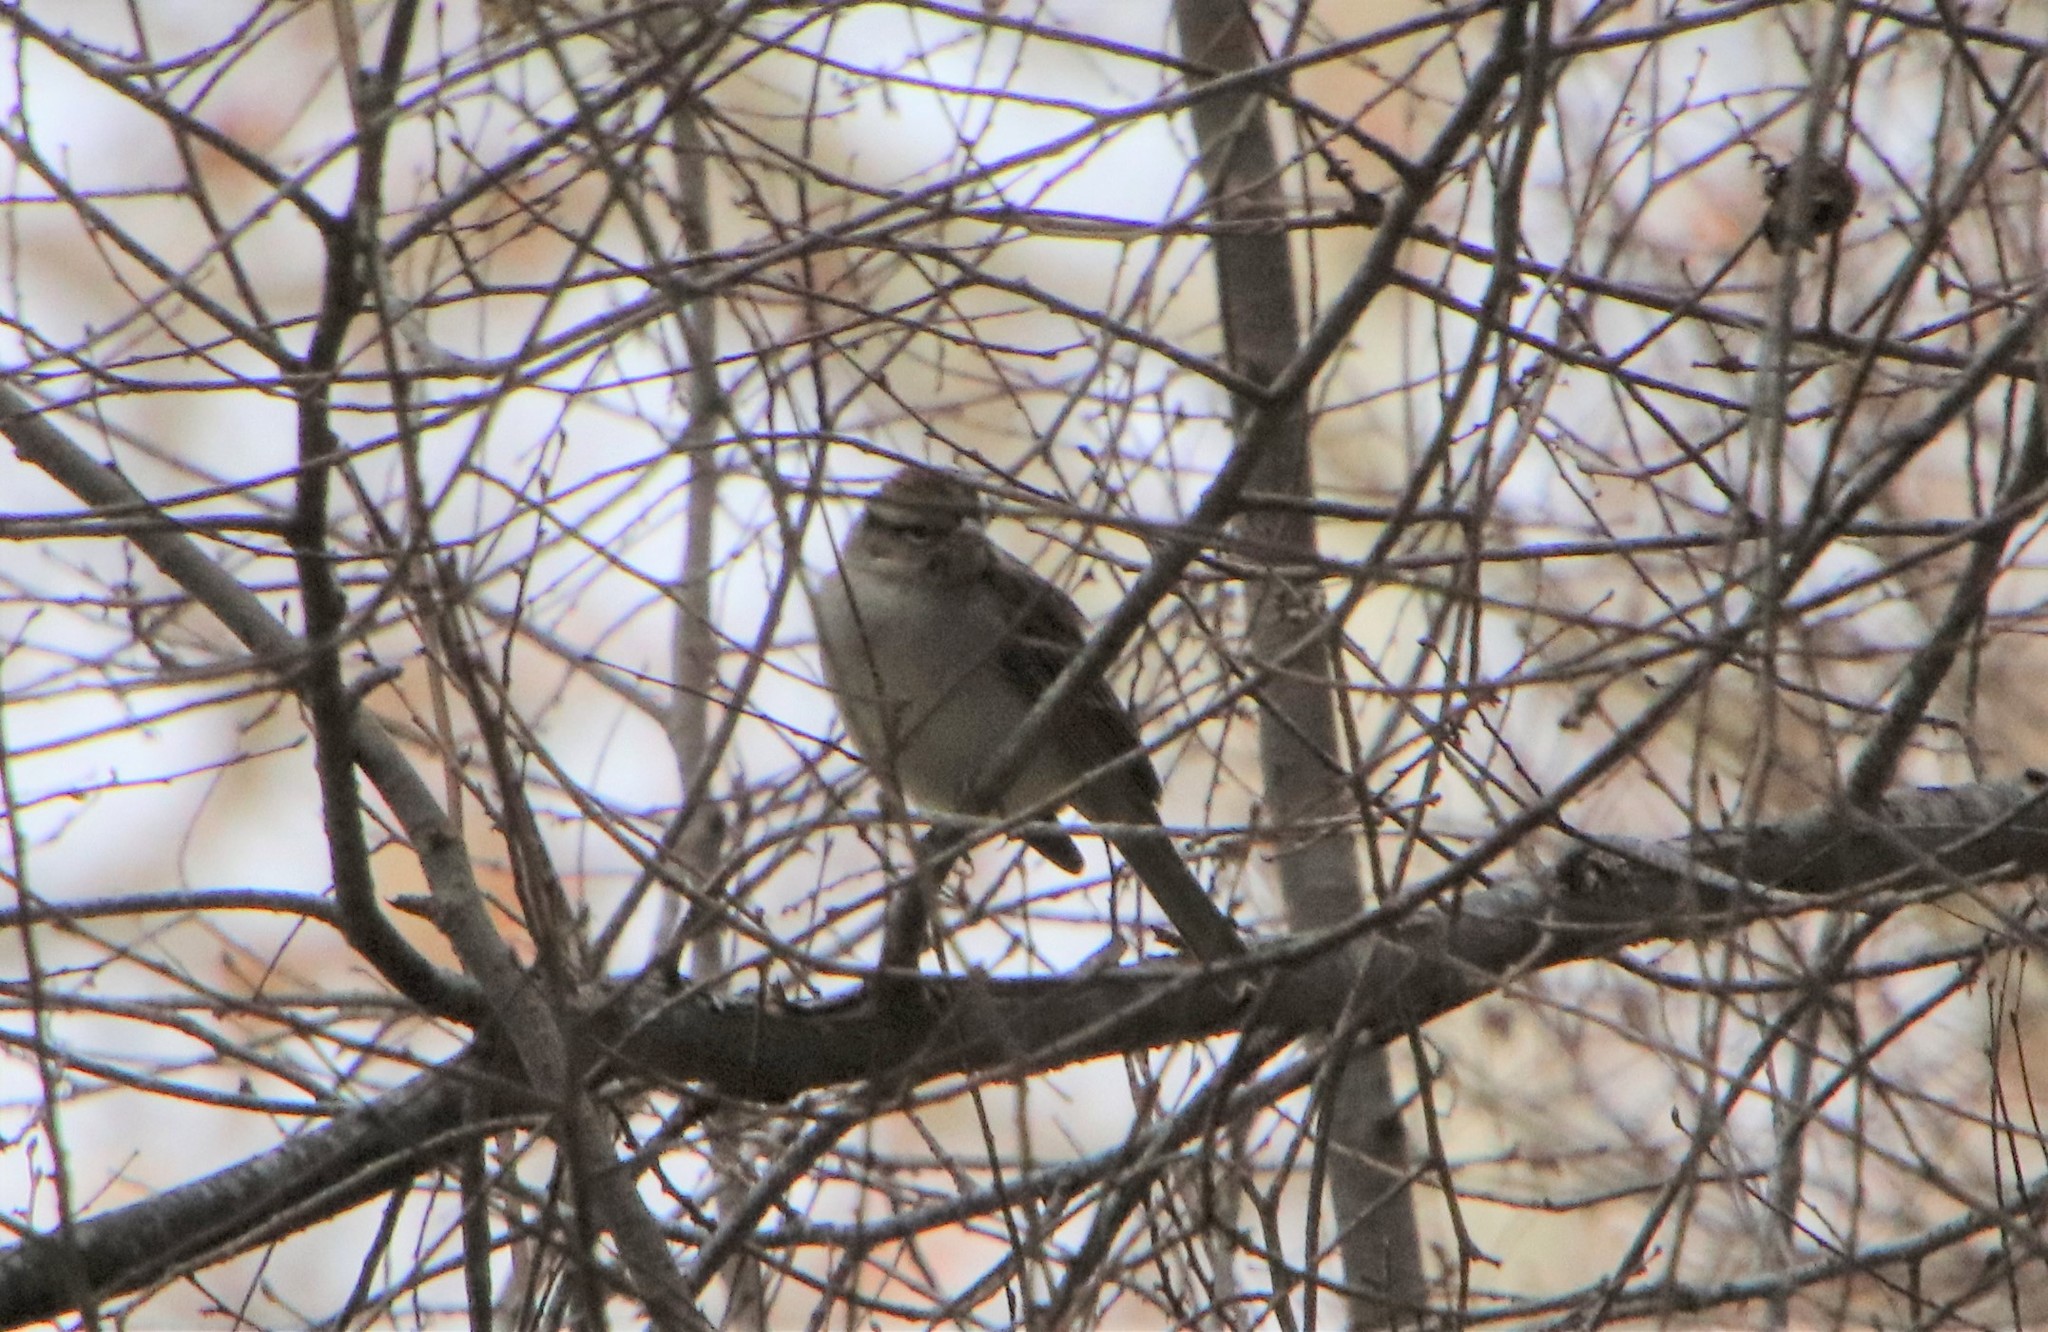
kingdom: Animalia
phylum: Chordata
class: Aves
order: Passeriformes
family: Passerellidae
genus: Spizella
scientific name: Spizella passerina
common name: Chipping sparrow
